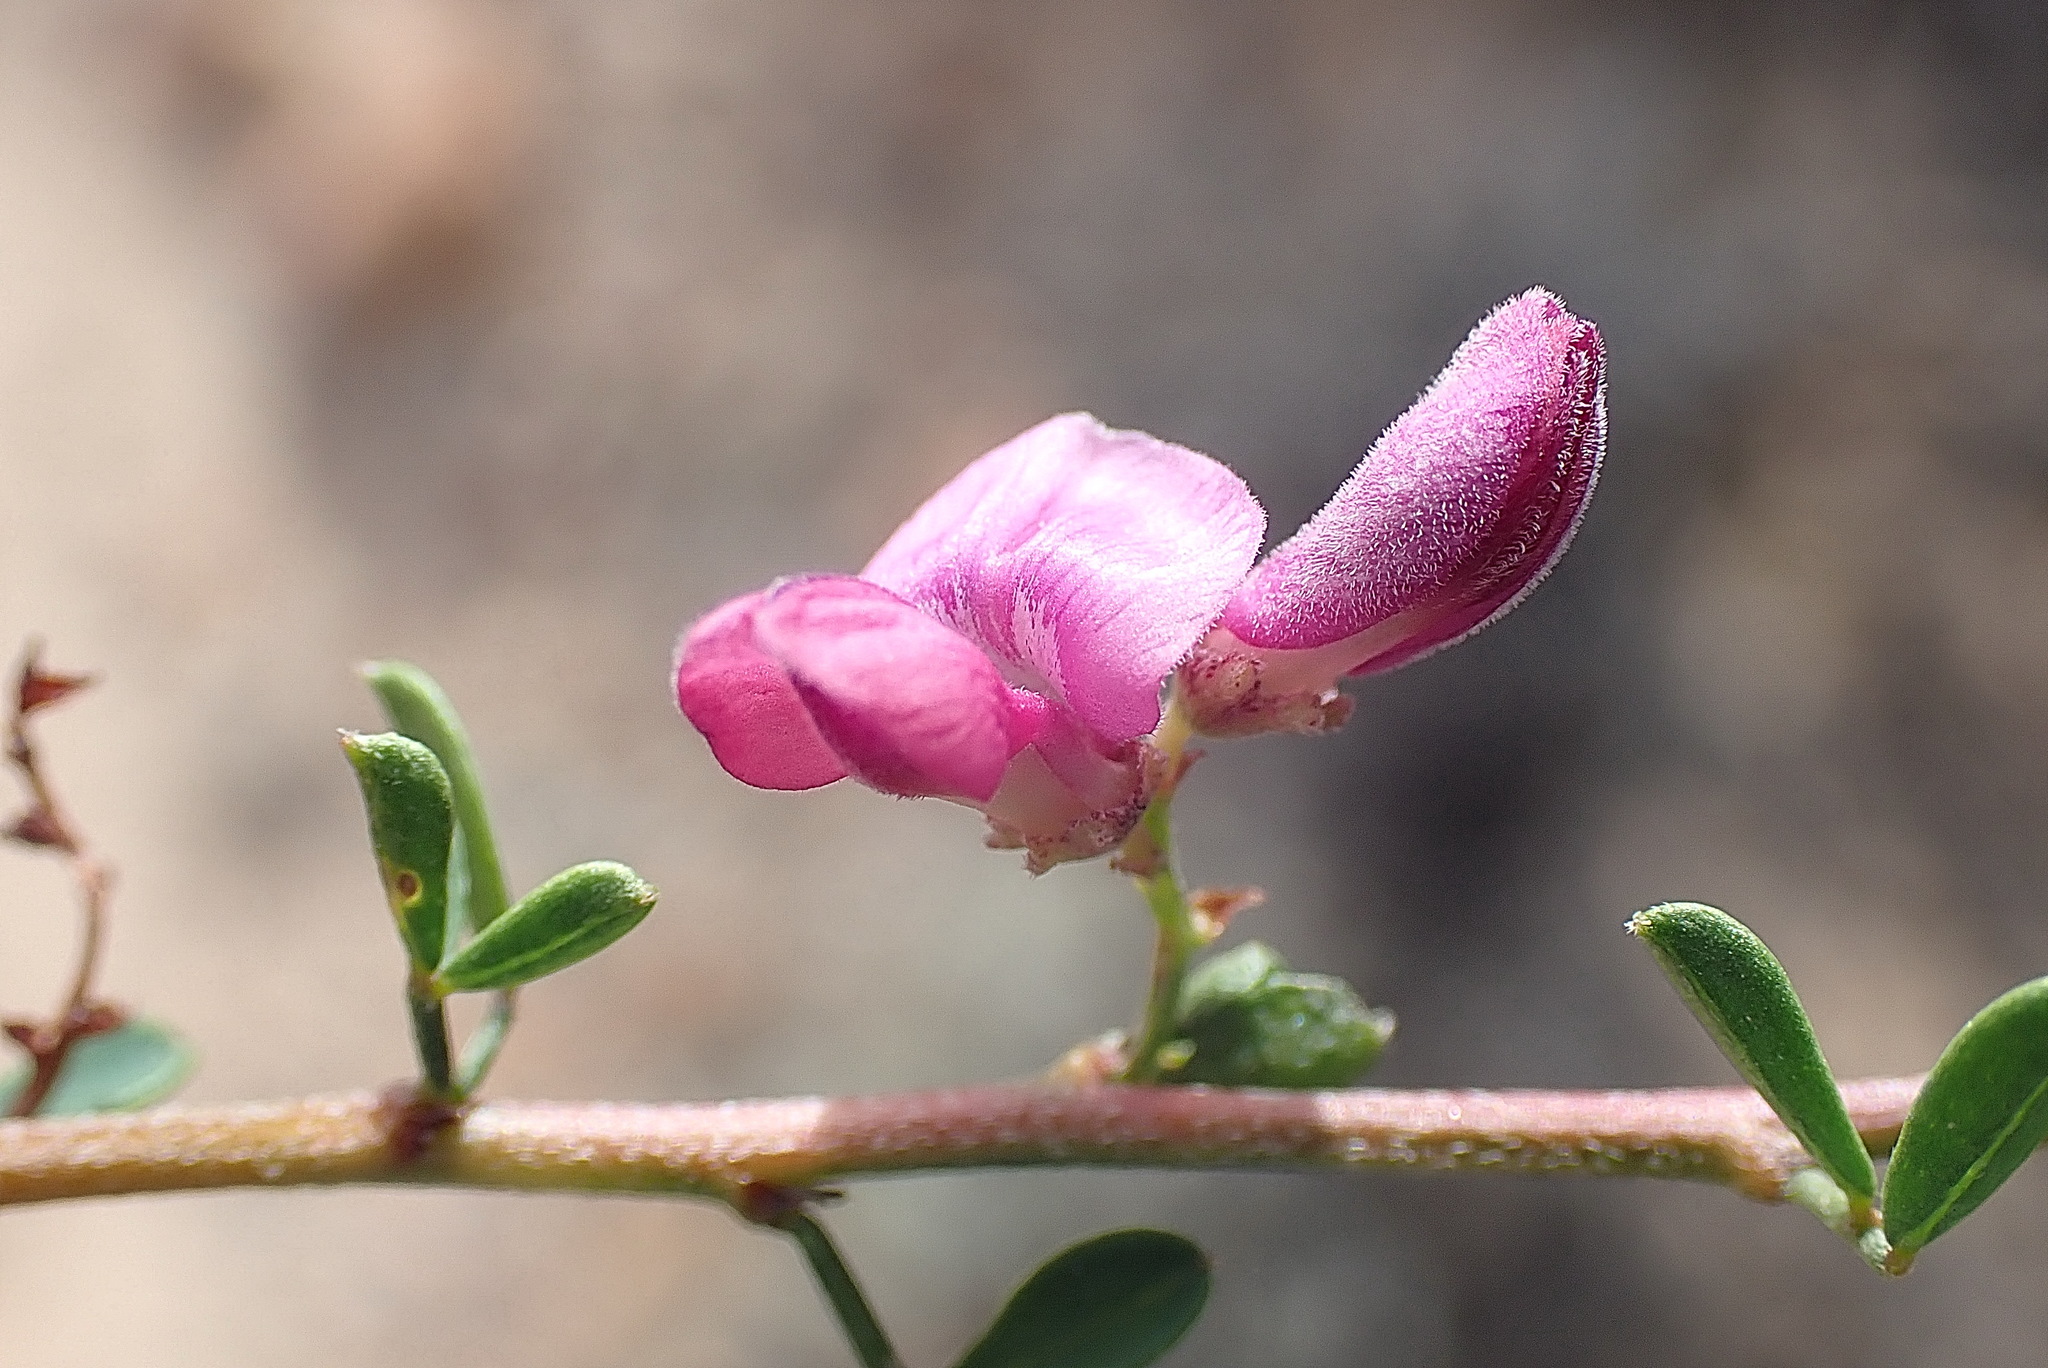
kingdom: Plantae
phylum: Tracheophyta
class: Magnoliopsida
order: Fabales
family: Fabaceae
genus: Indigofera
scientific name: Indigofera nigromontana
